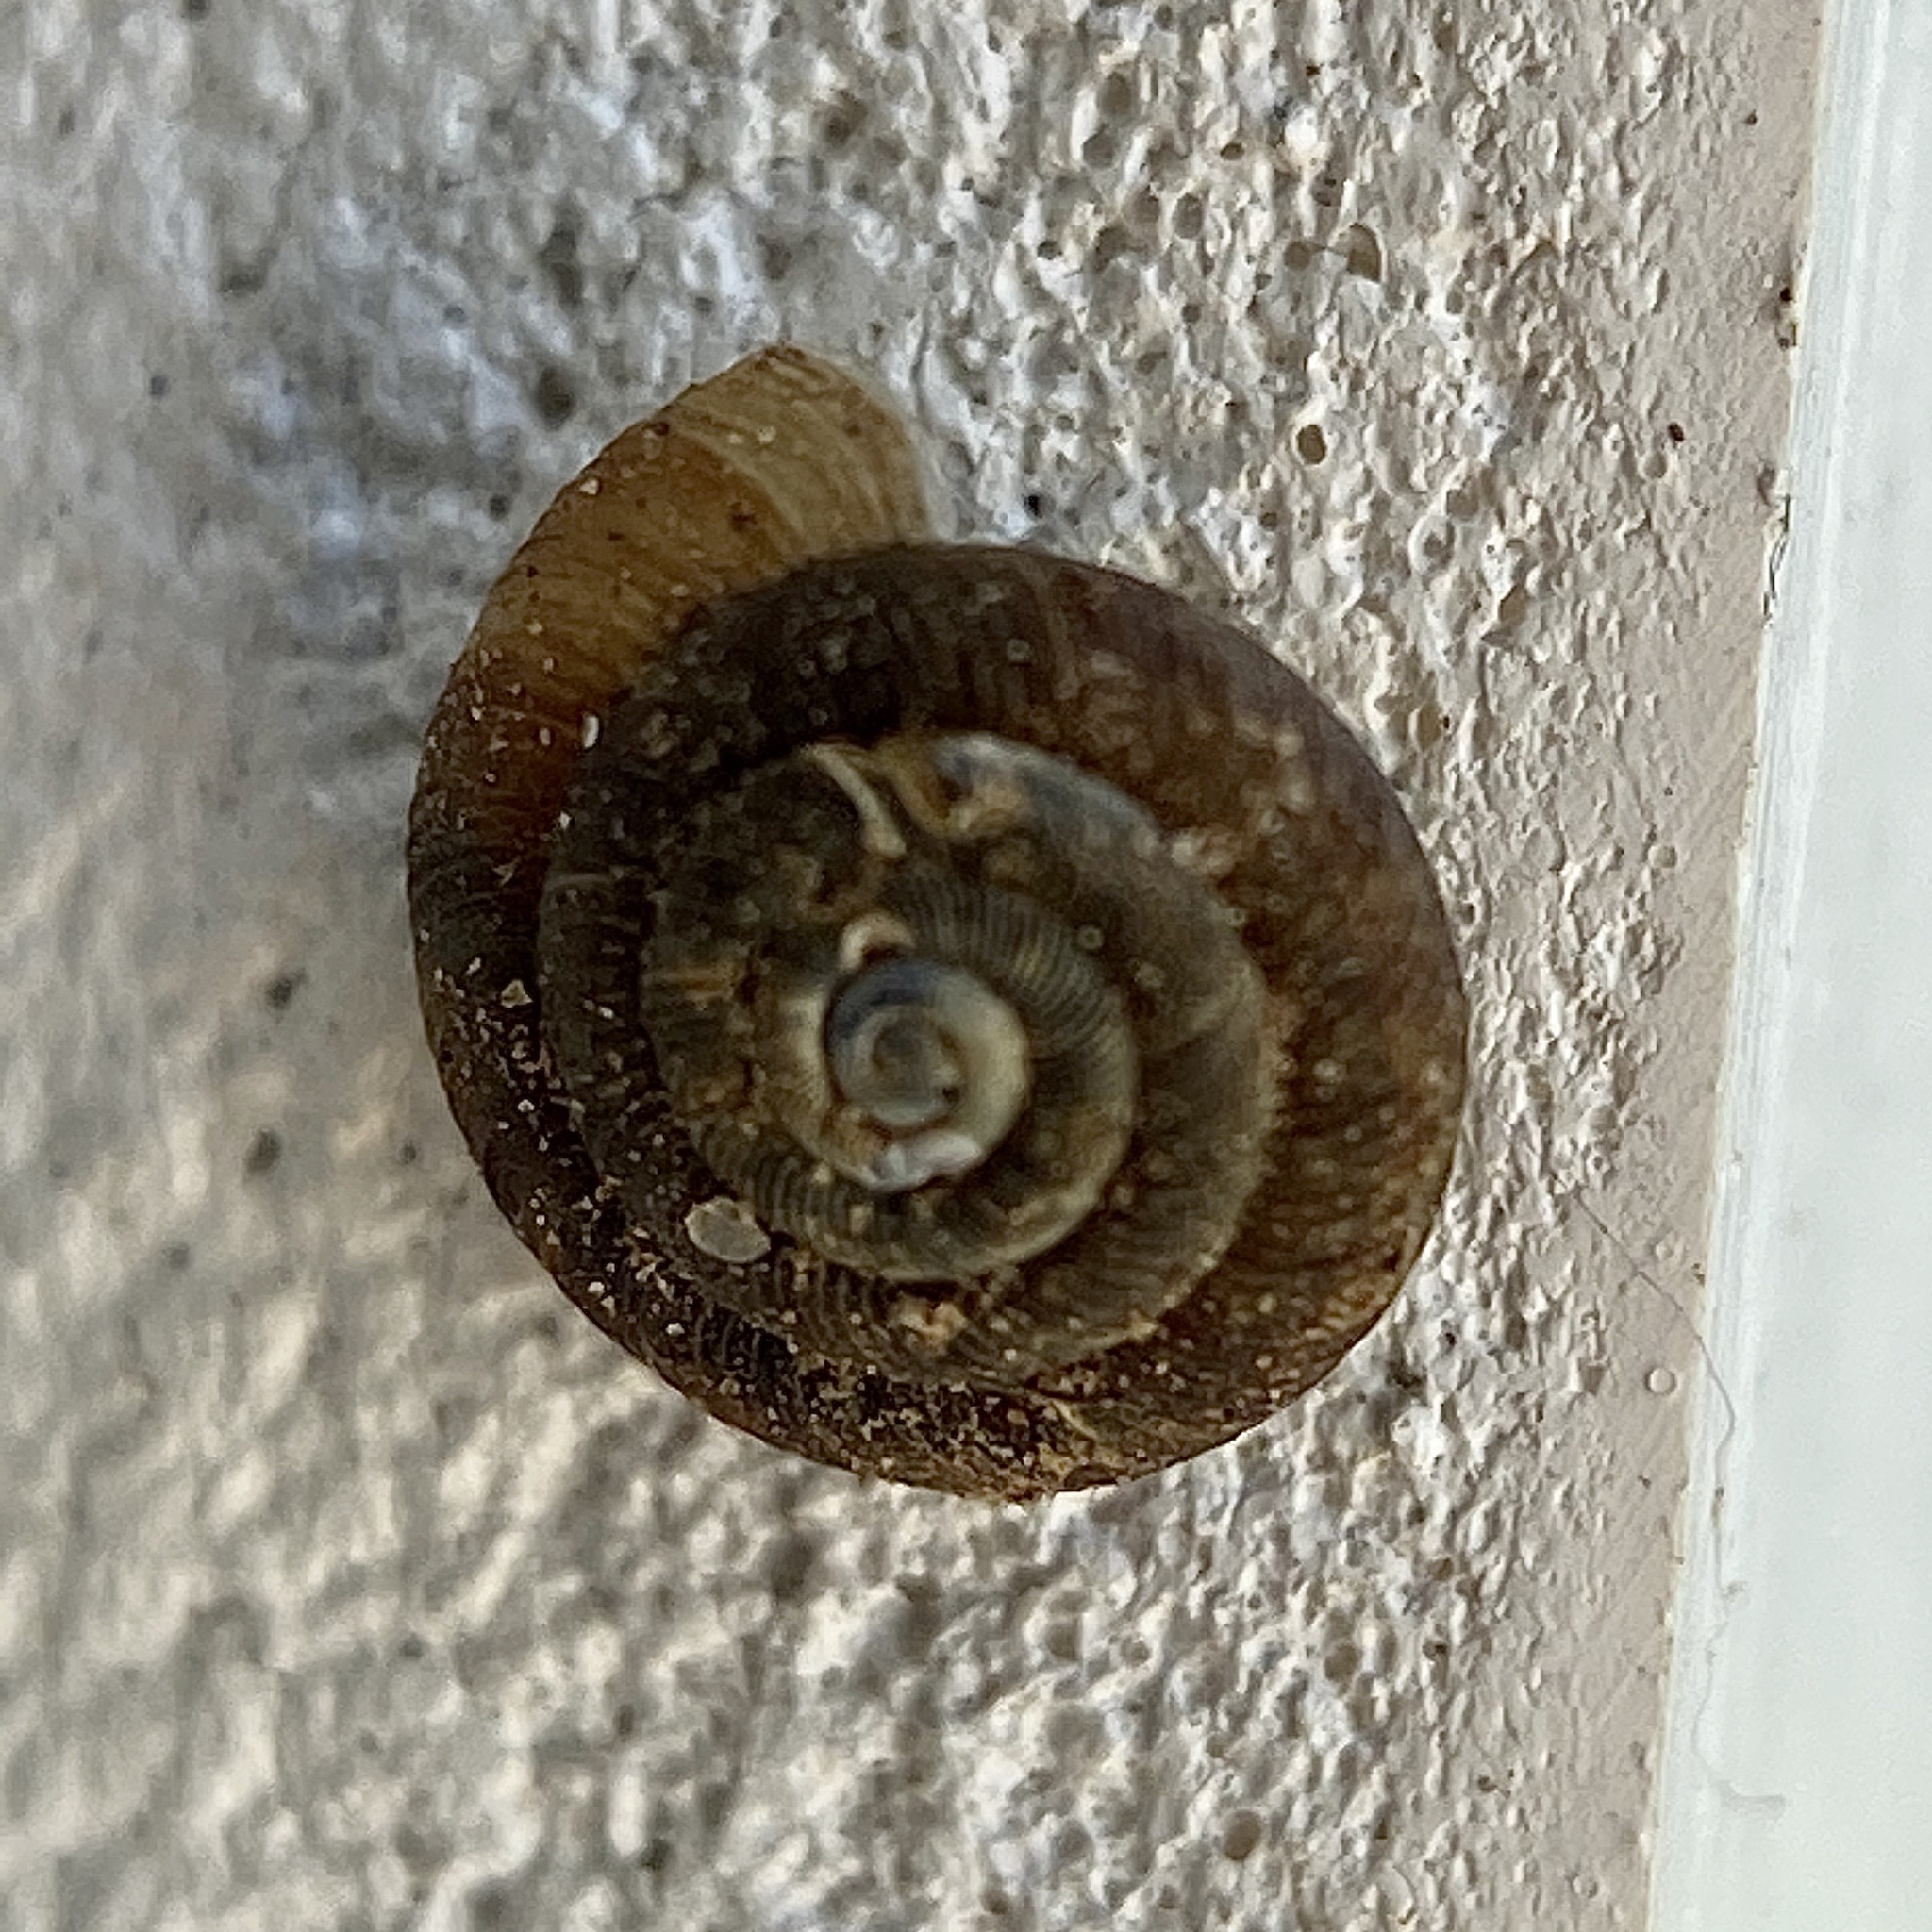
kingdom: Animalia
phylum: Mollusca
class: Gastropoda
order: Stylommatophora
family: Discidae
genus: Discus
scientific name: Discus rotundatus
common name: Rounded snail
